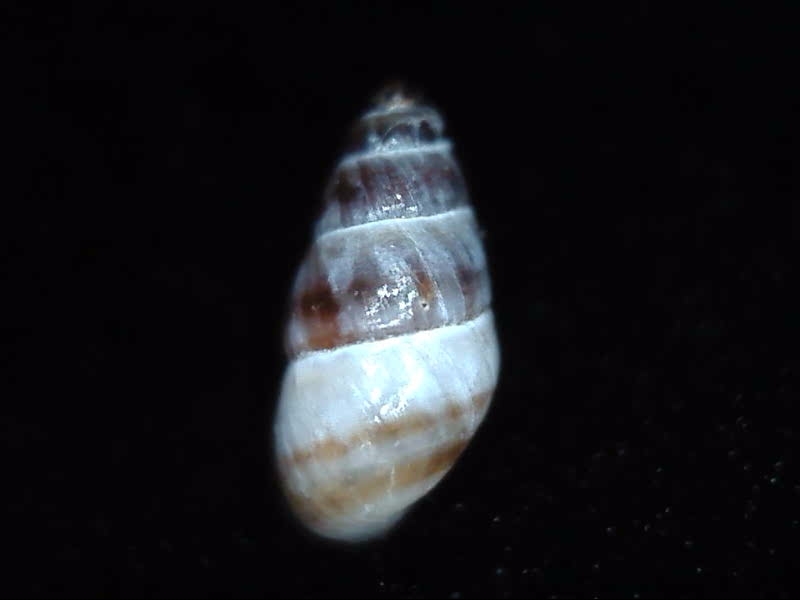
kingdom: Animalia
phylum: Mollusca
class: Gastropoda
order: Littorinimorpha
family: Anabathridae
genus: Pisinna
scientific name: Pisinna zosterophila
